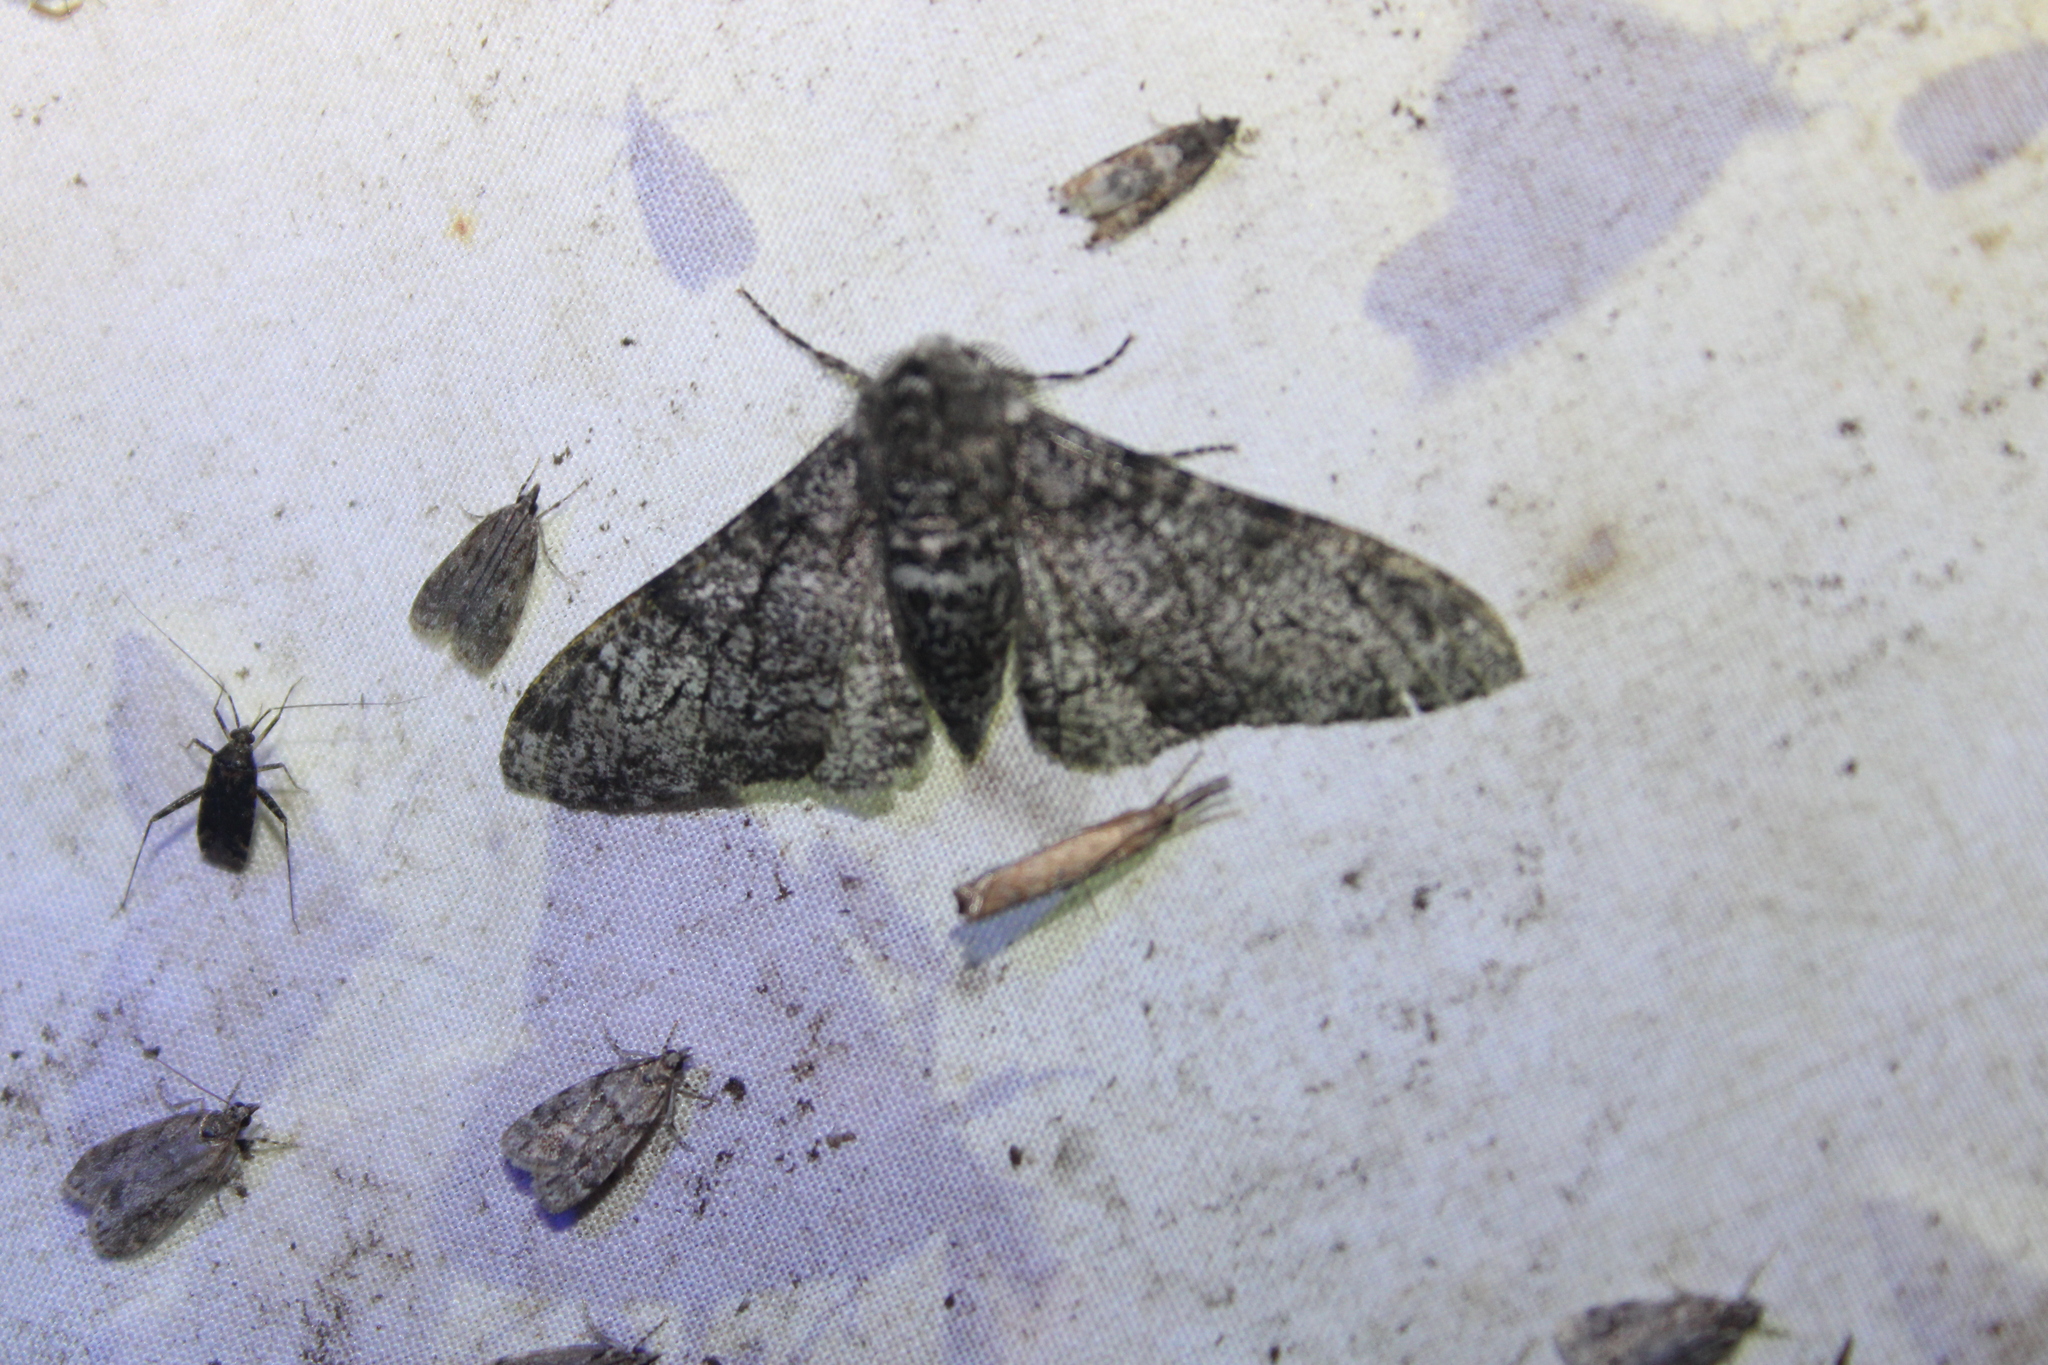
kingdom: Animalia
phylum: Arthropoda
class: Insecta
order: Lepidoptera
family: Geometridae
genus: Biston
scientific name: Biston betularia
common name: Peppered moth
